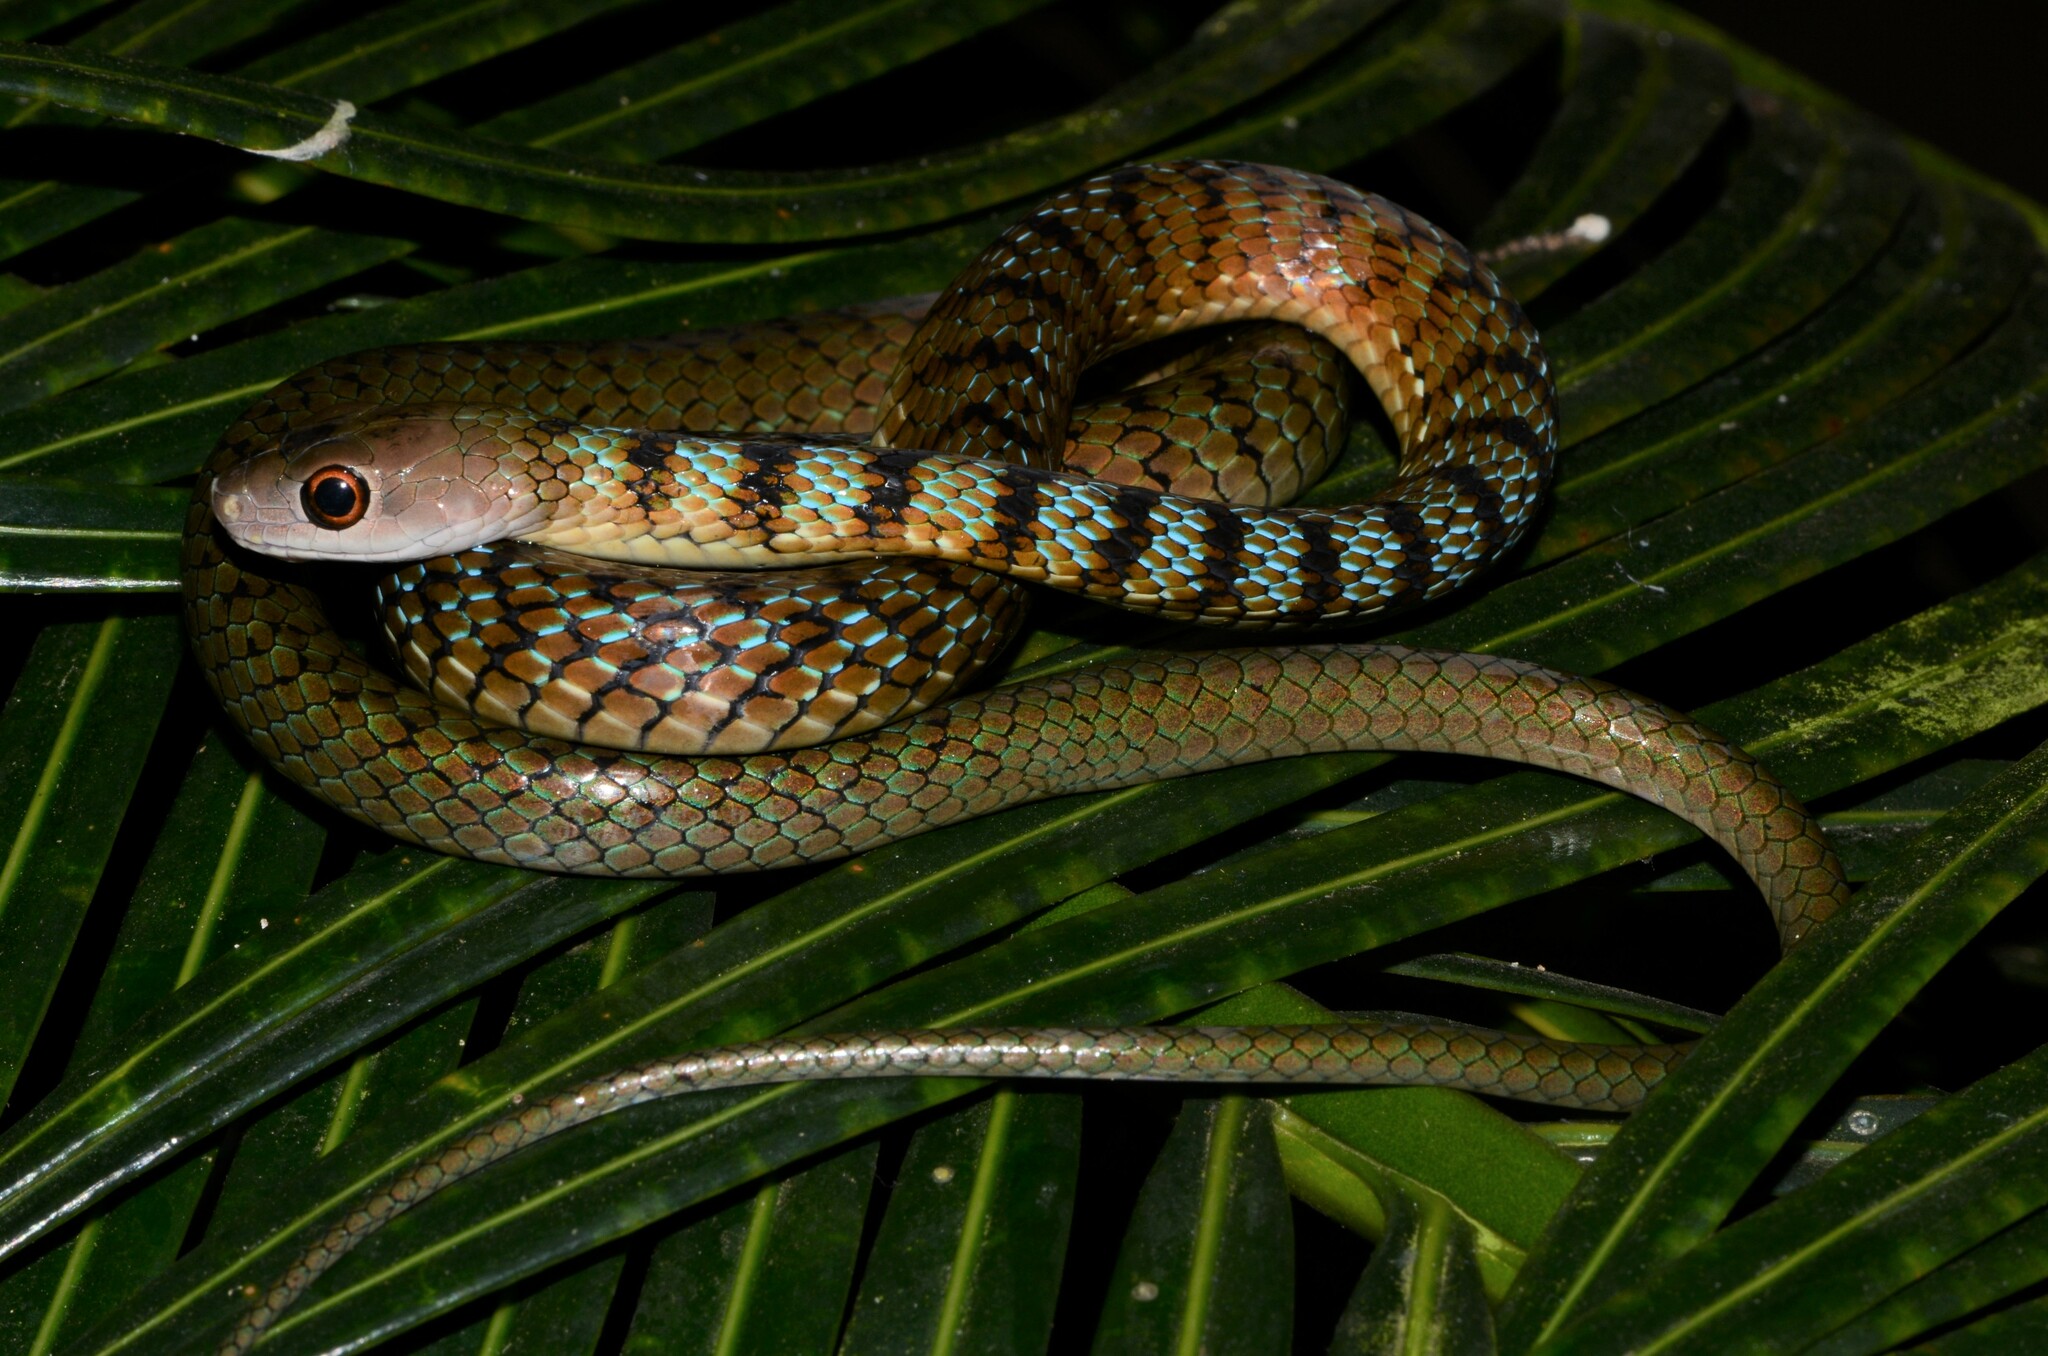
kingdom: Animalia
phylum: Chordata
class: Squamata
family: Colubridae
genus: Philothamnus
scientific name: Philothamnus mayombensis
